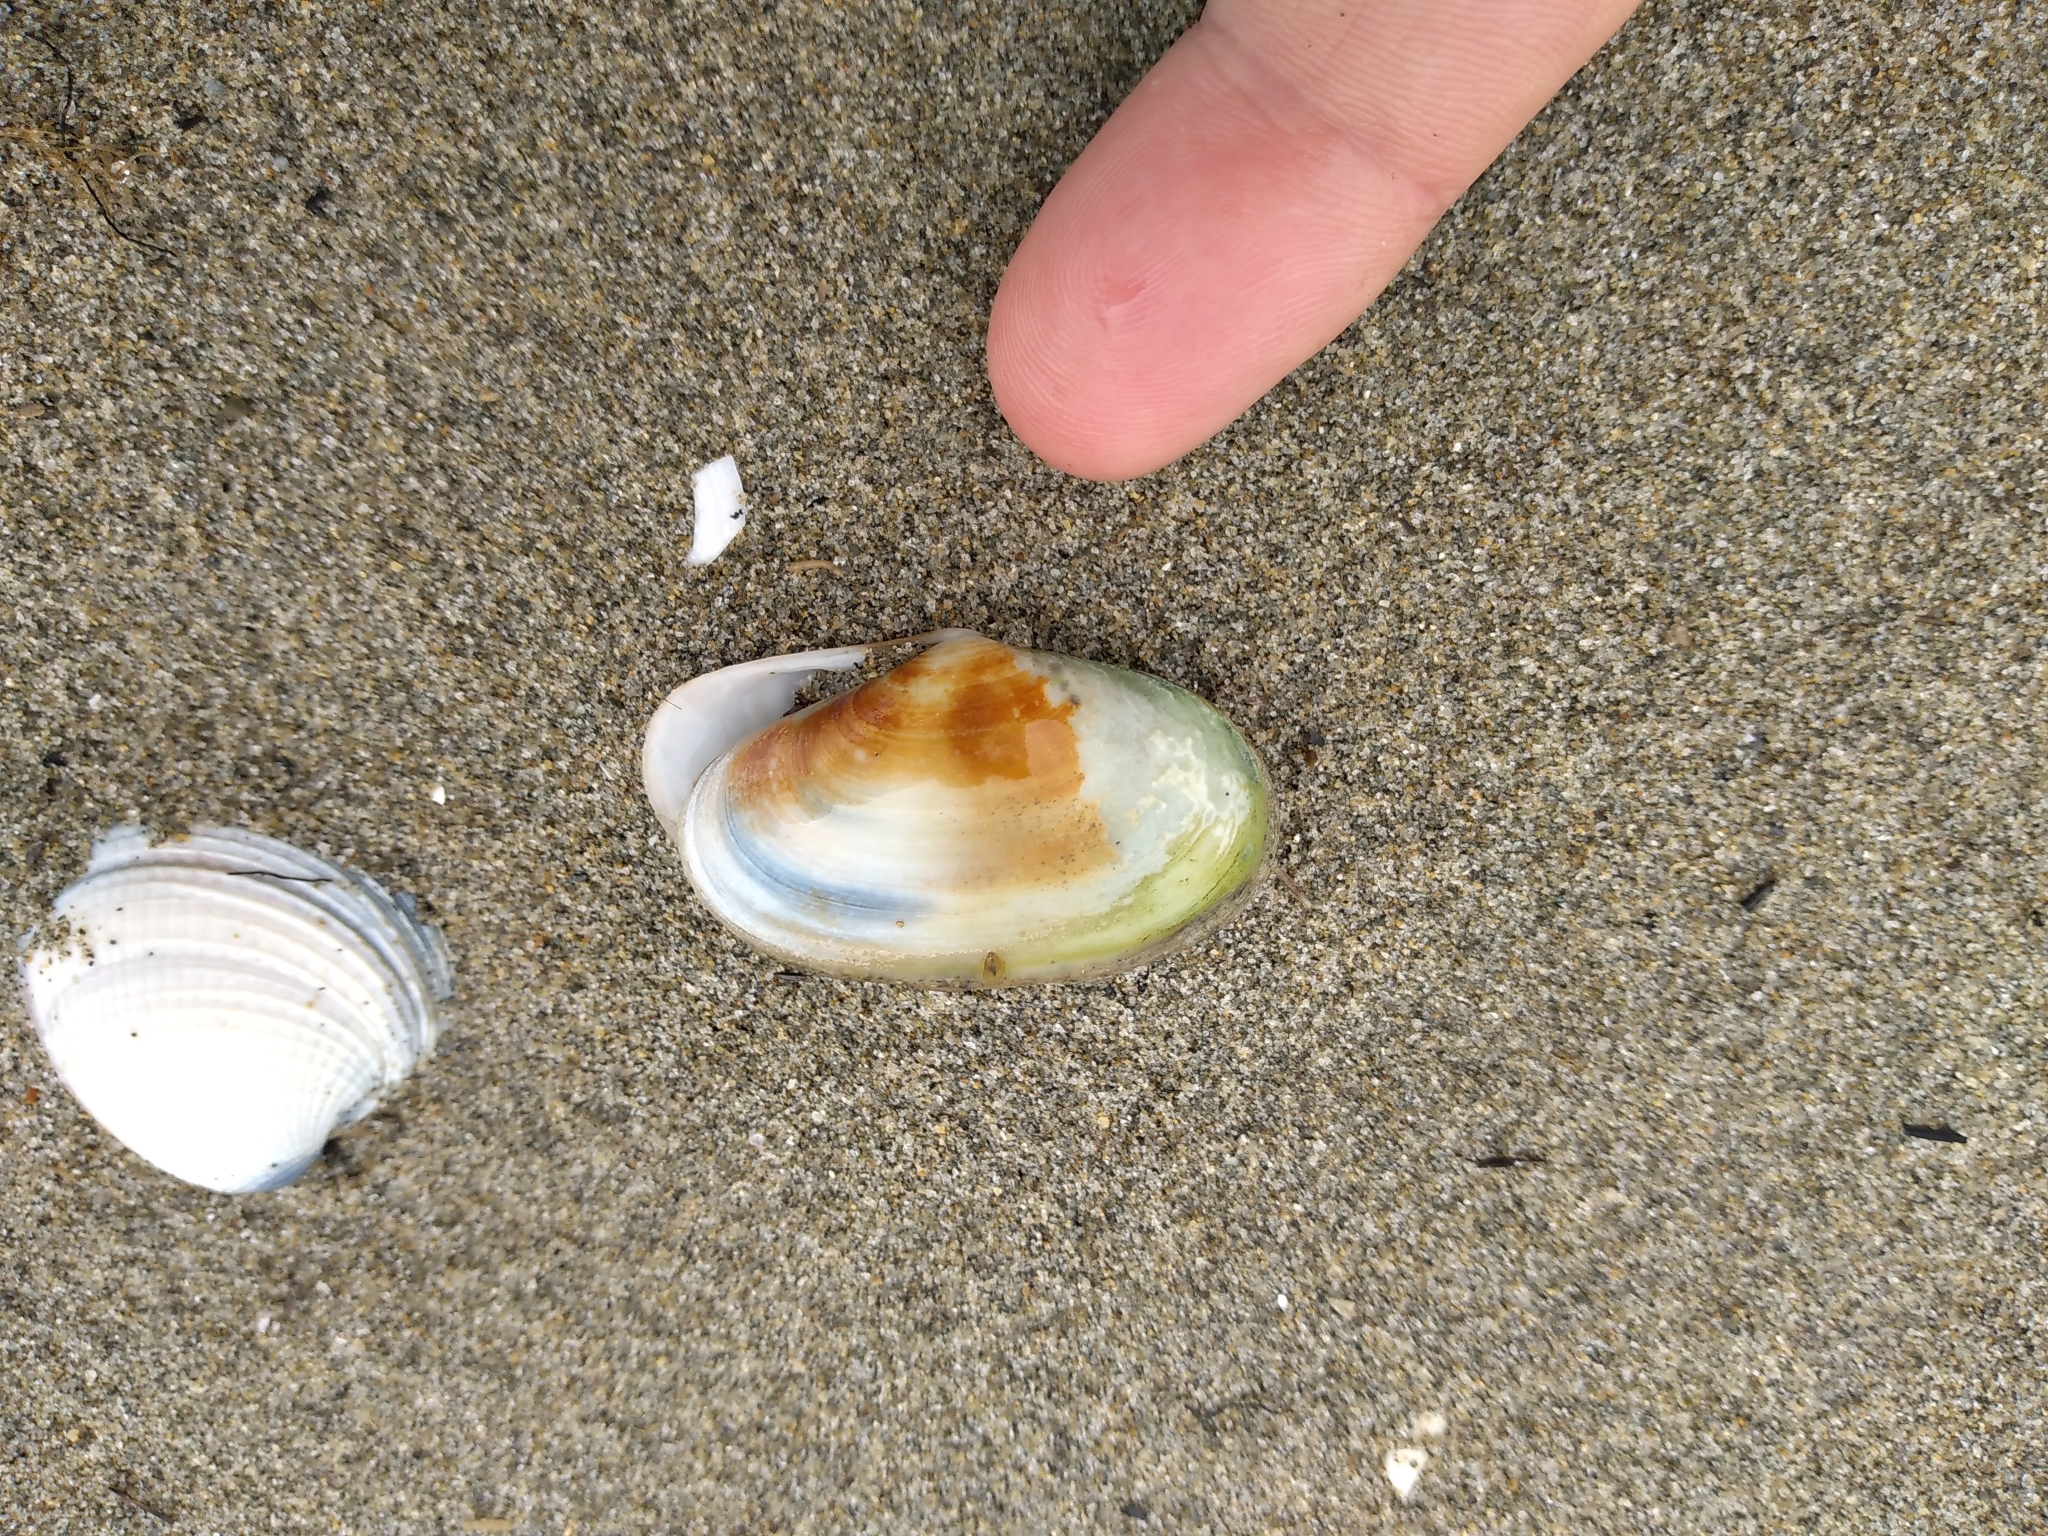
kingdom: Animalia
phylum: Mollusca
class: Bivalvia
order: Venerida
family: Mesodesmatidae
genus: Paphies
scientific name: Paphies australis
